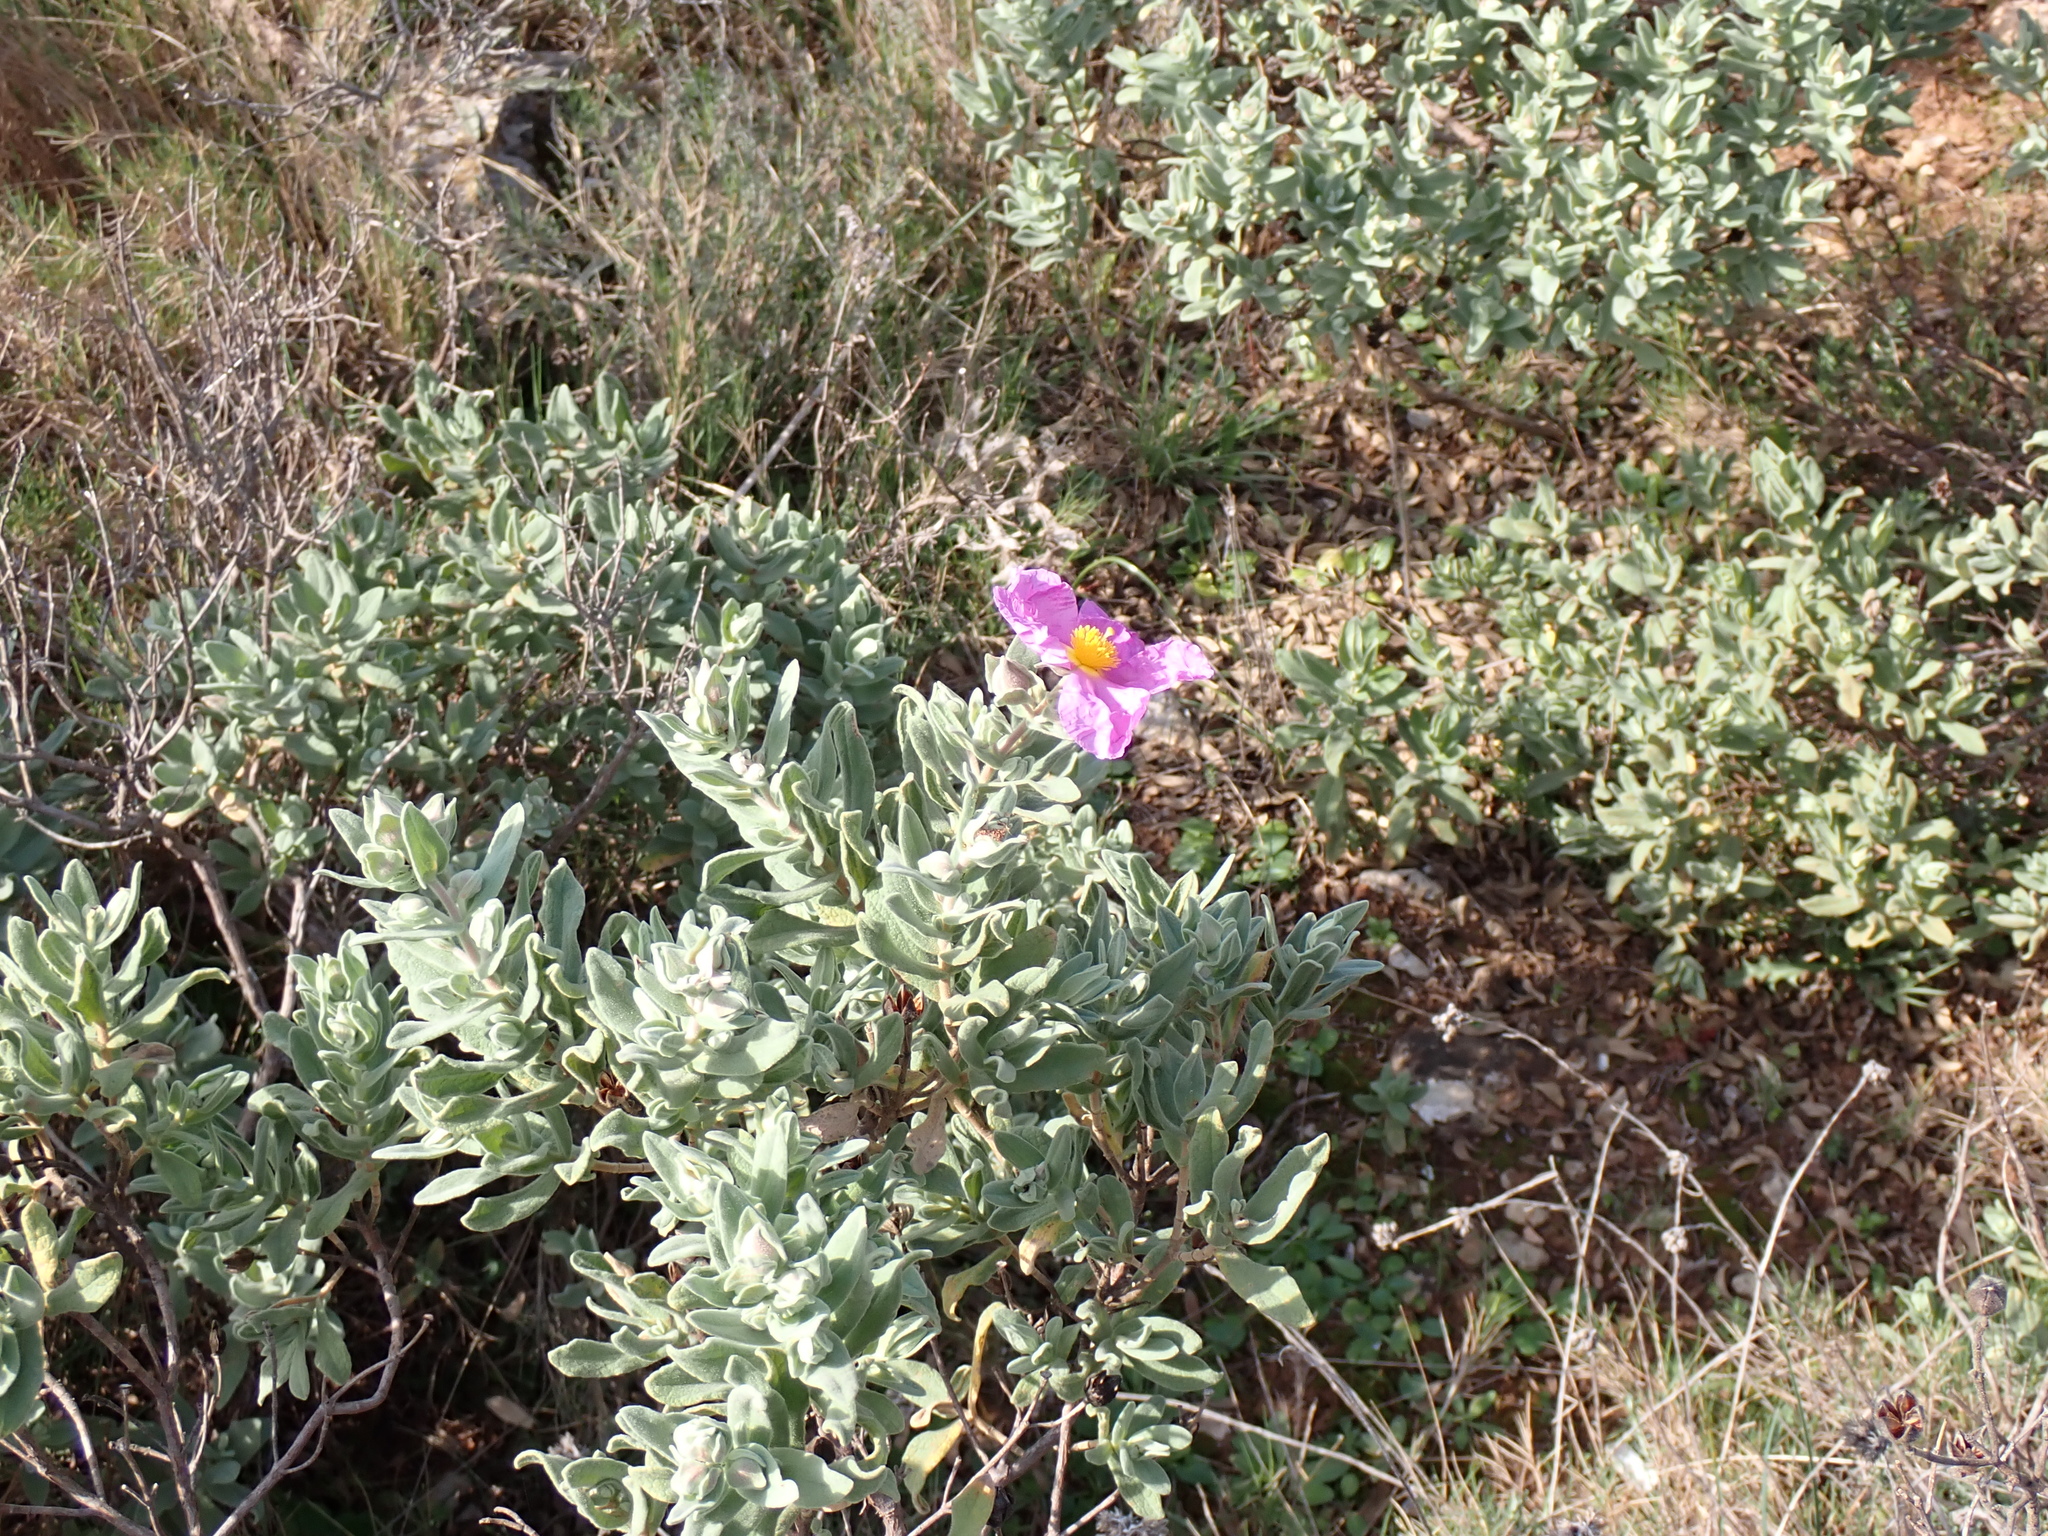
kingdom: Plantae
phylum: Tracheophyta
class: Magnoliopsida
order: Malvales
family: Cistaceae
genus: Cistus
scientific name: Cistus albidus
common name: White-leaf rock-rose
